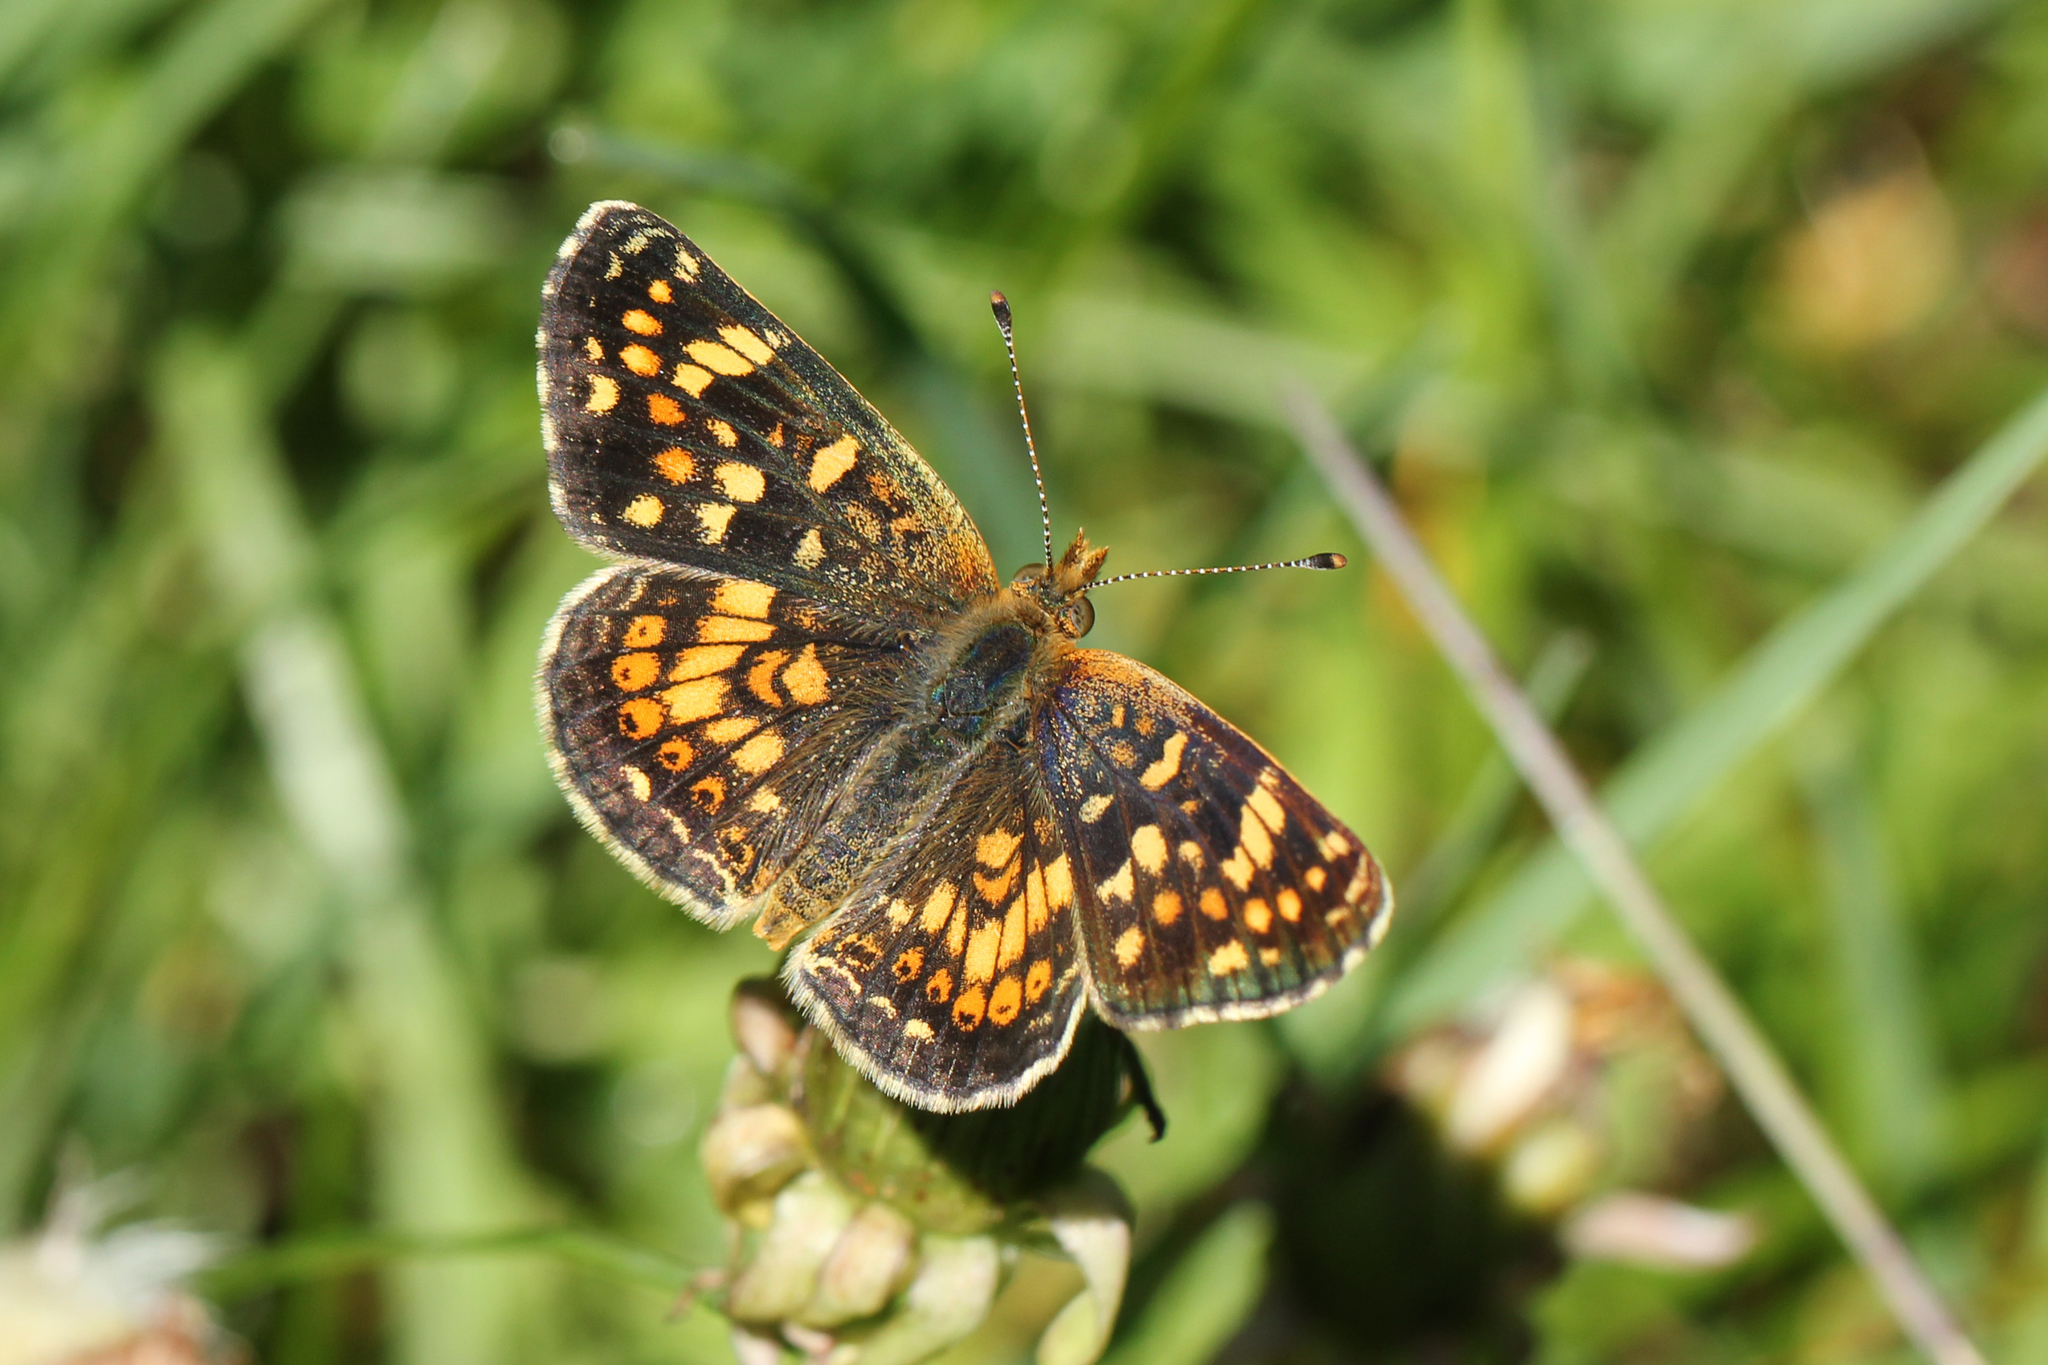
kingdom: Animalia
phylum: Arthropoda
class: Insecta
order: Lepidoptera
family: Nymphalidae
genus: Phyciodes
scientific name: Phyciodes tharos
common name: Pearl crescent
